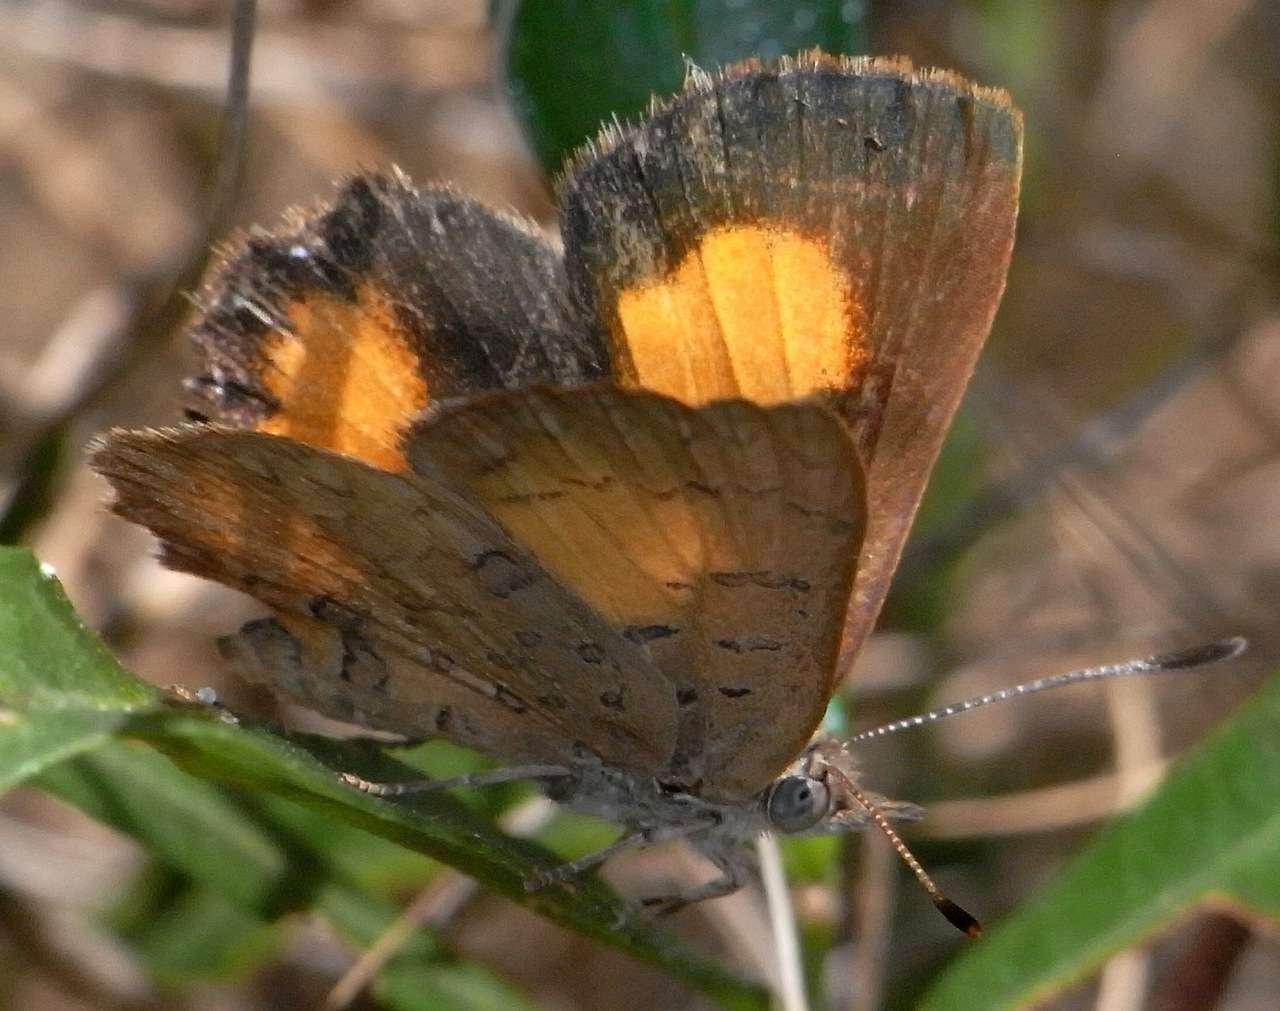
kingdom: Animalia
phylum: Arthropoda
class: Insecta
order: Lepidoptera
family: Lycaenidae
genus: Paralucia
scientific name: Paralucia aurifer
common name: Bright copper
